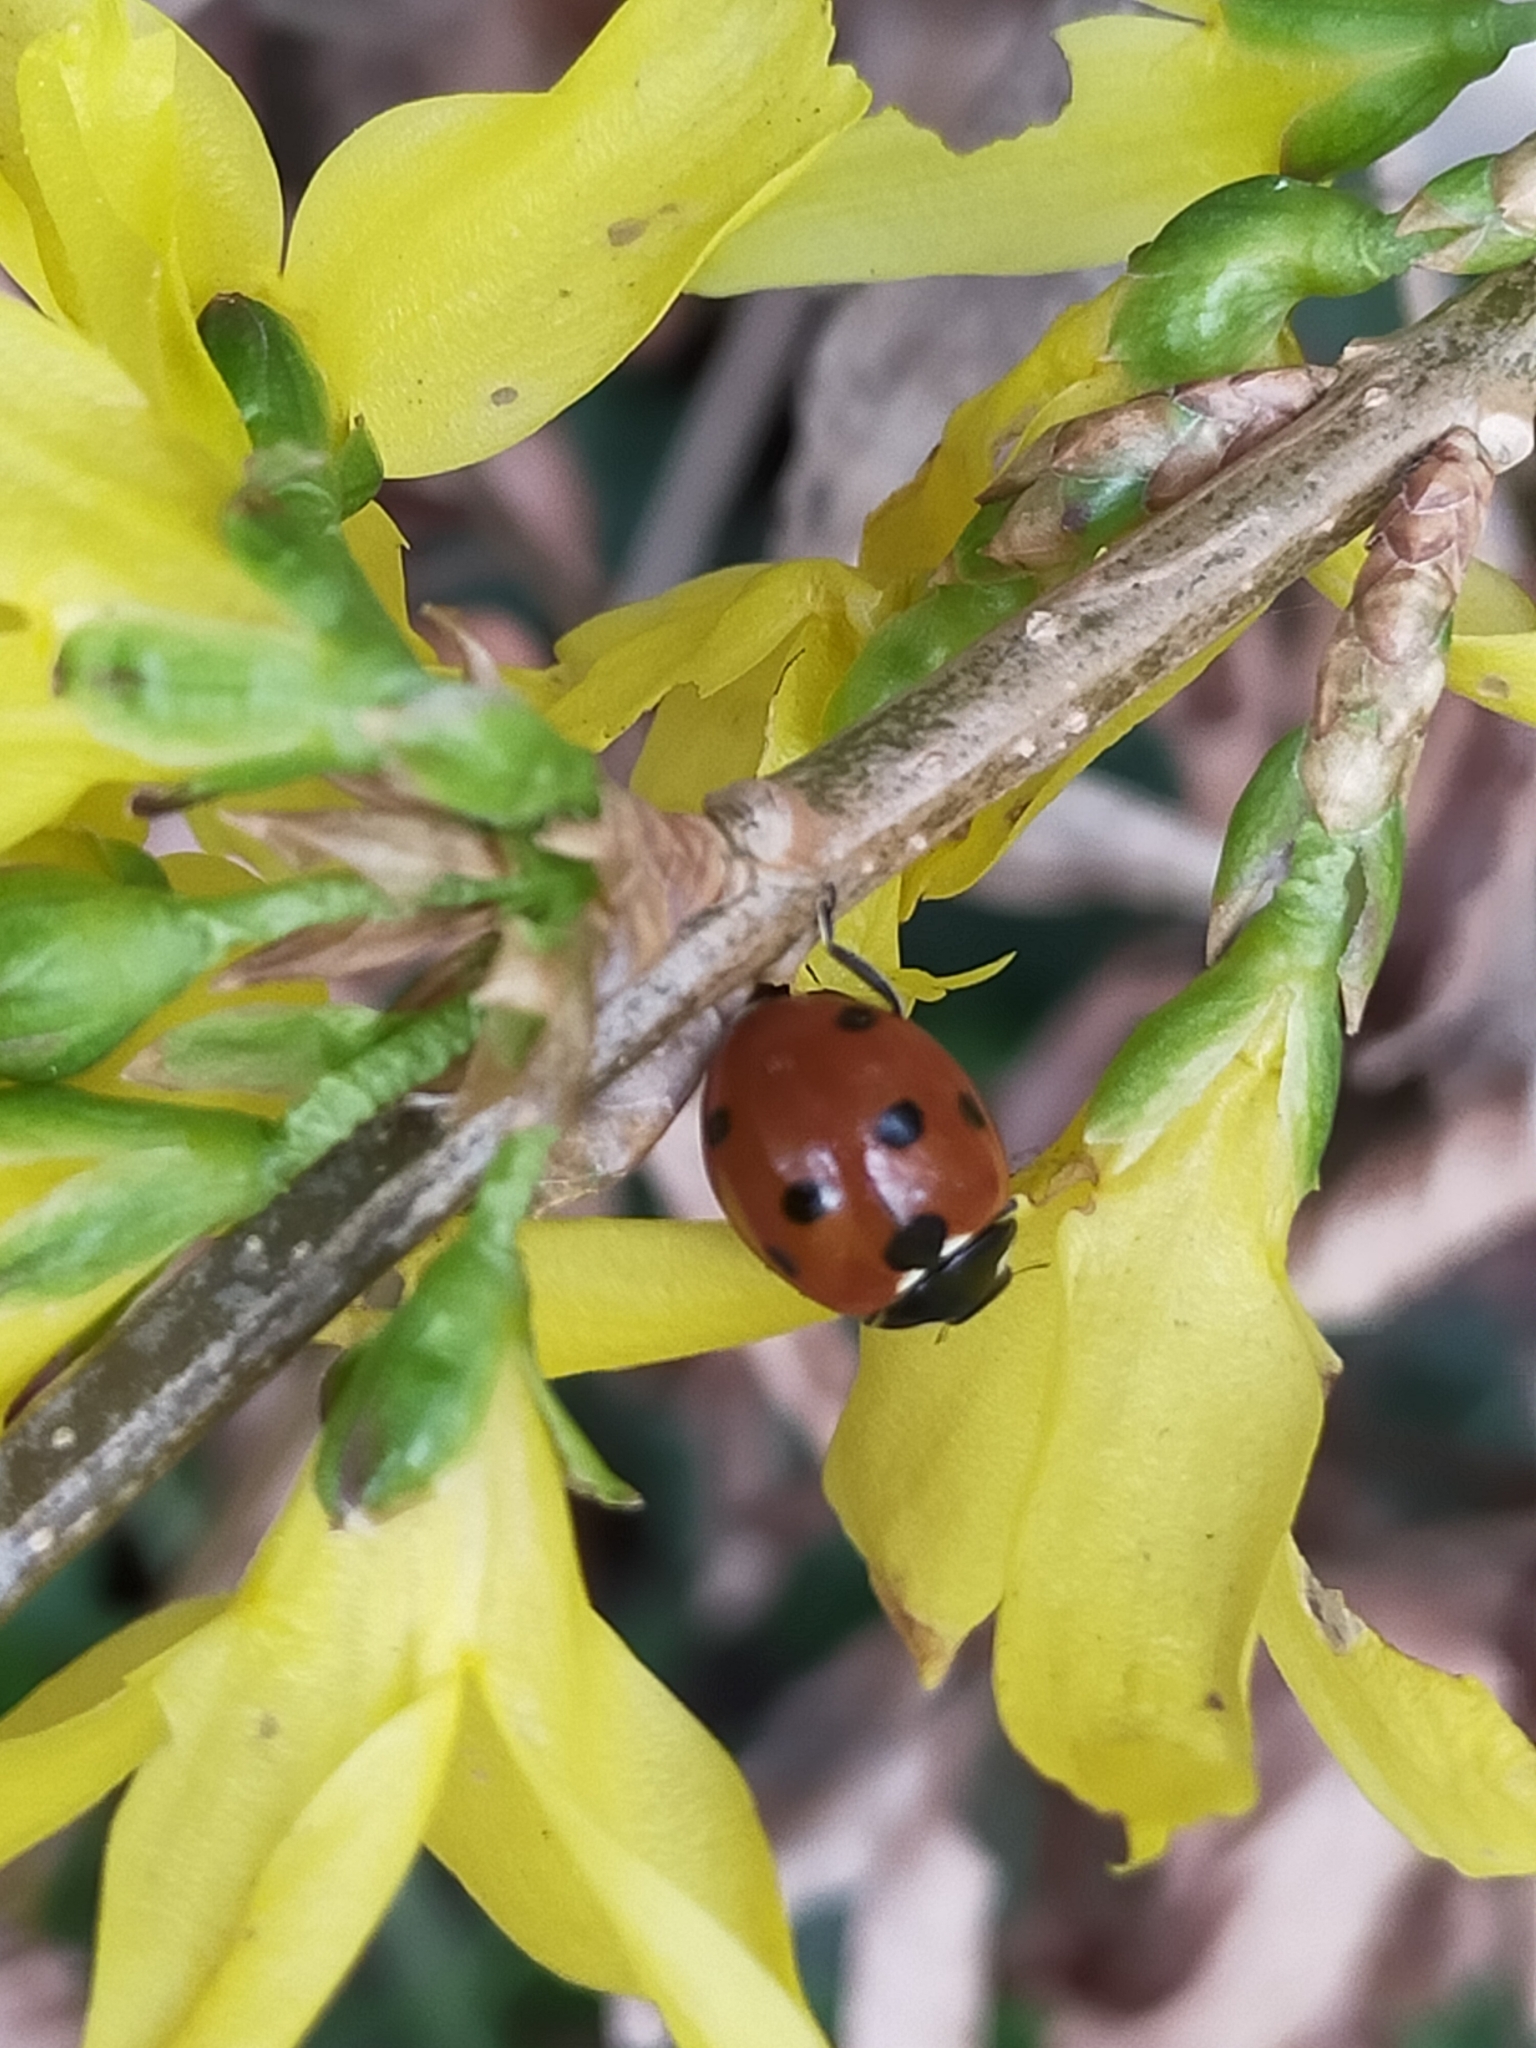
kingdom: Animalia
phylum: Arthropoda
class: Insecta
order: Coleoptera
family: Coccinellidae
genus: Coccinella
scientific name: Coccinella septempunctata
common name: Sevenspotted lady beetle
